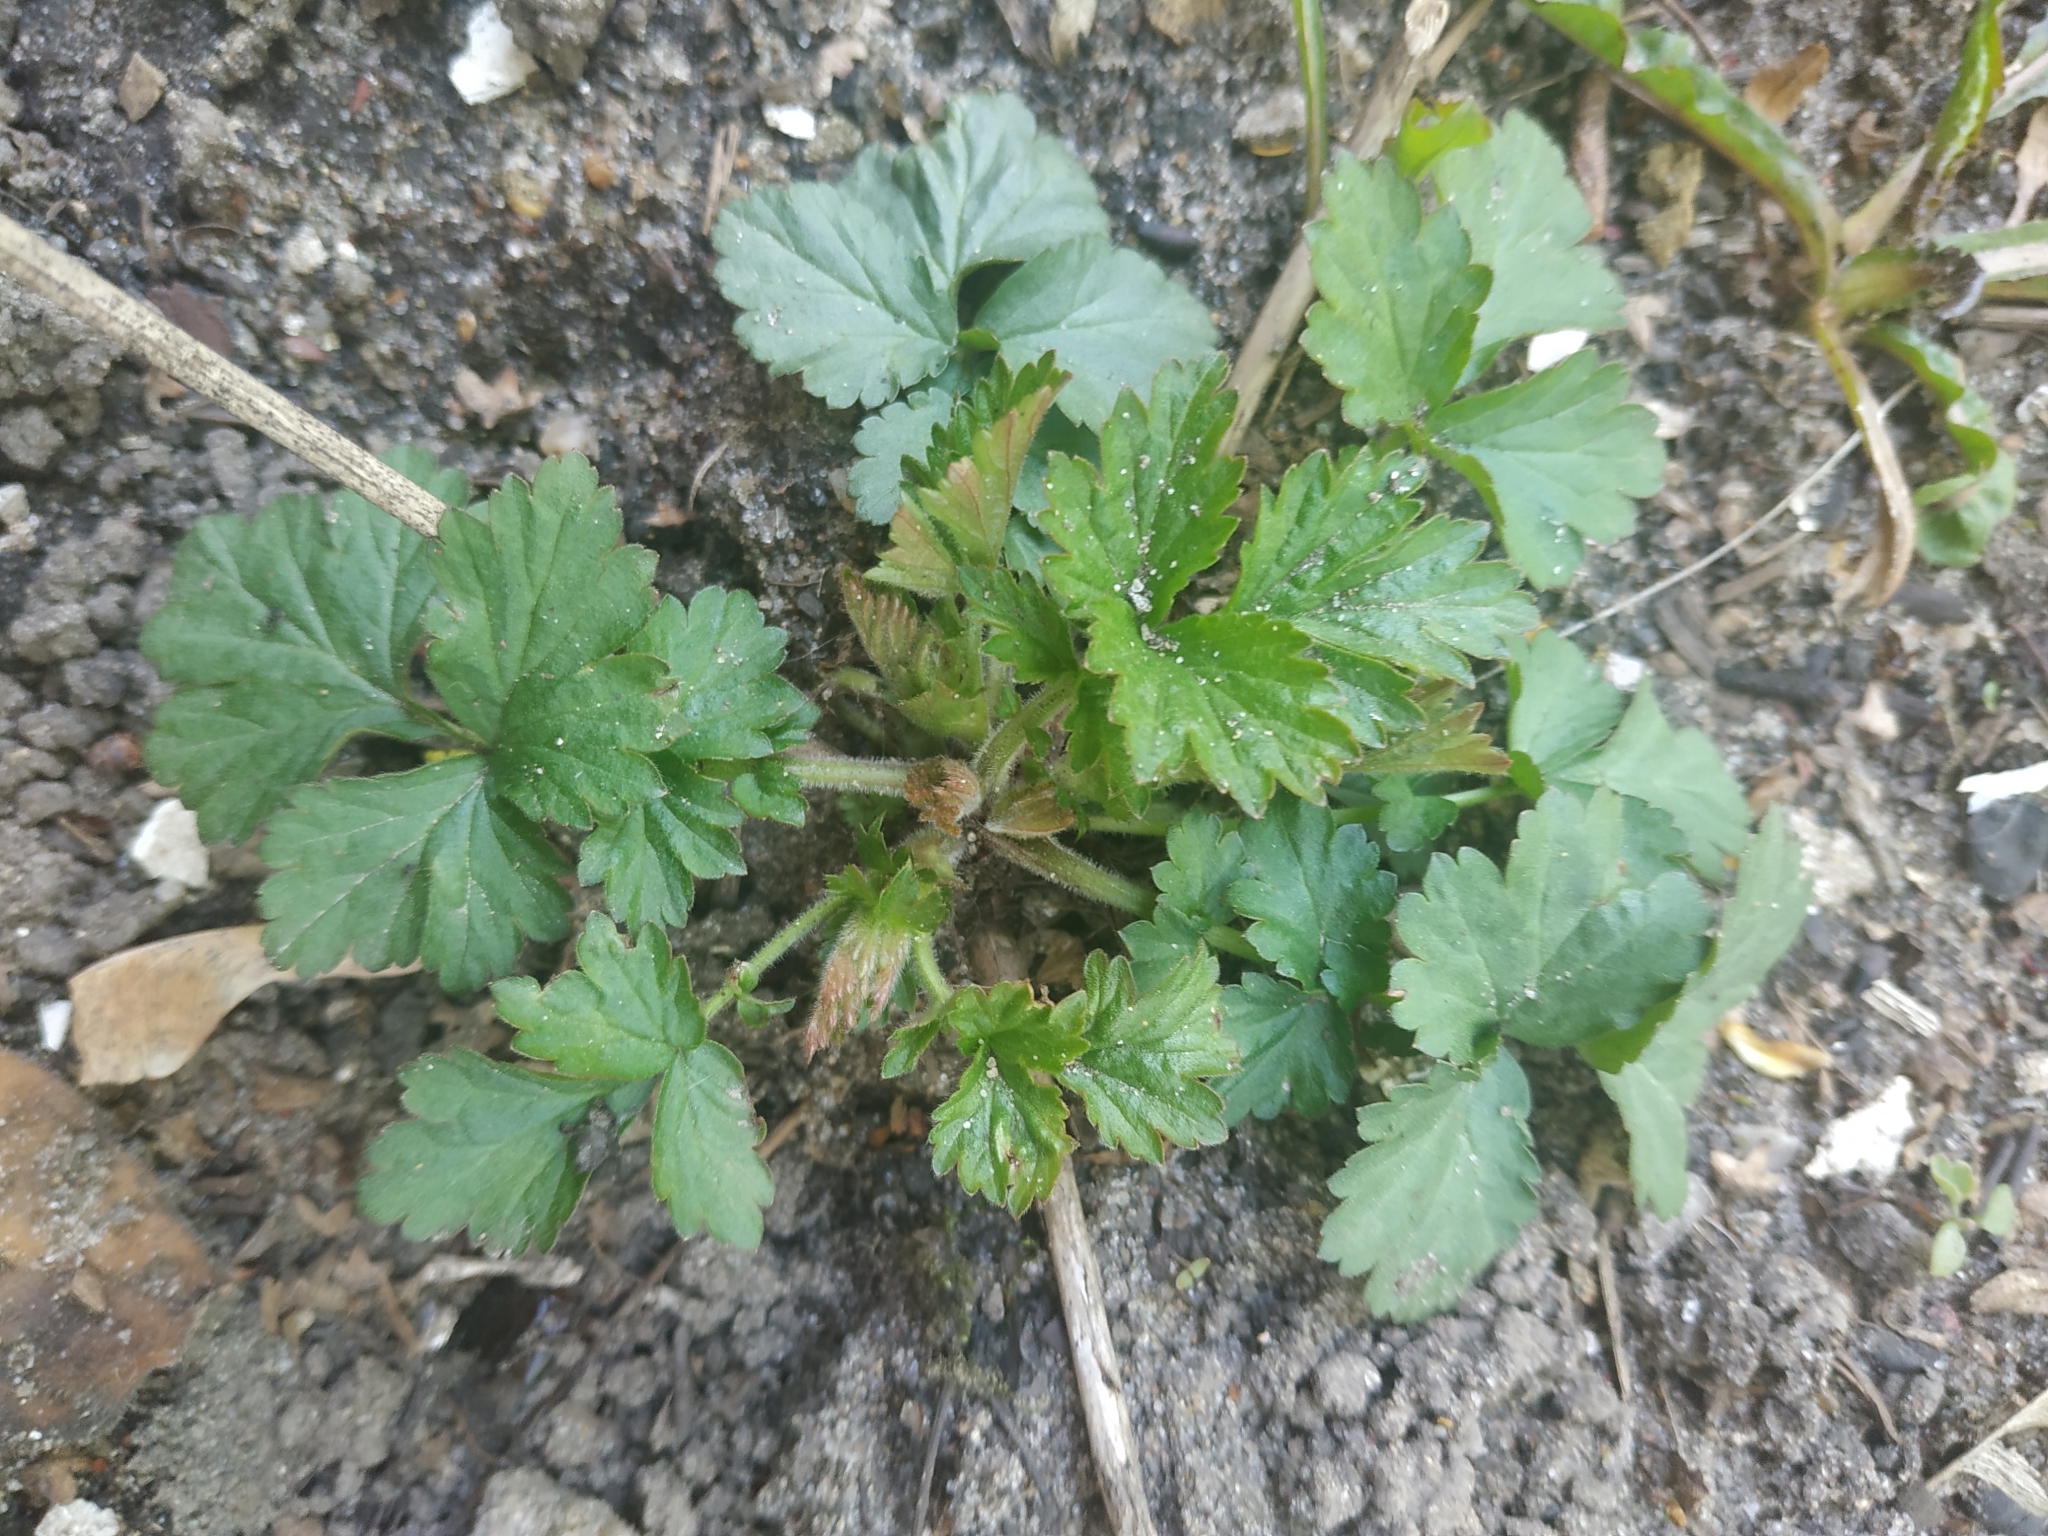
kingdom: Plantae
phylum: Tracheophyta
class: Magnoliopsida
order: Rosales
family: Rosaceae
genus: Geum
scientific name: Geum
